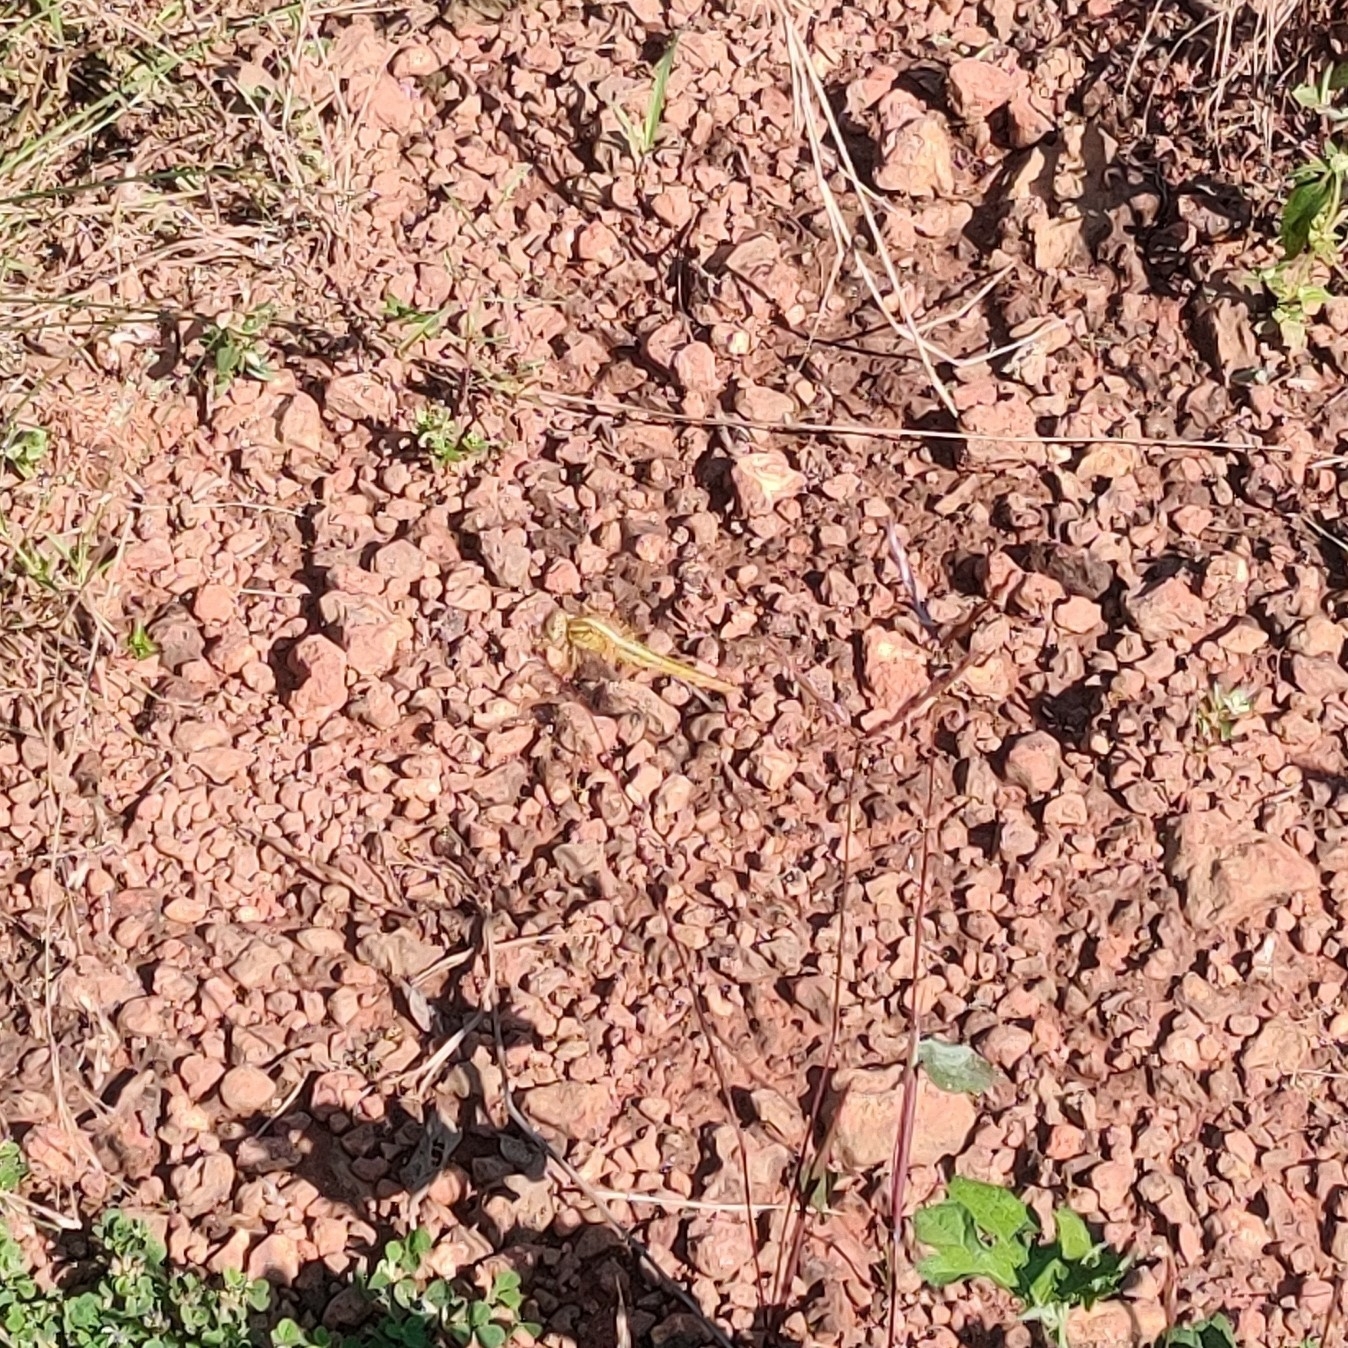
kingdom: Animalia
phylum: Arthropoda
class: Insecta
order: Odonata
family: Libellulidae
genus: Crocothemis
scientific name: Crocothemis servilia
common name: Scarlet skimmer
